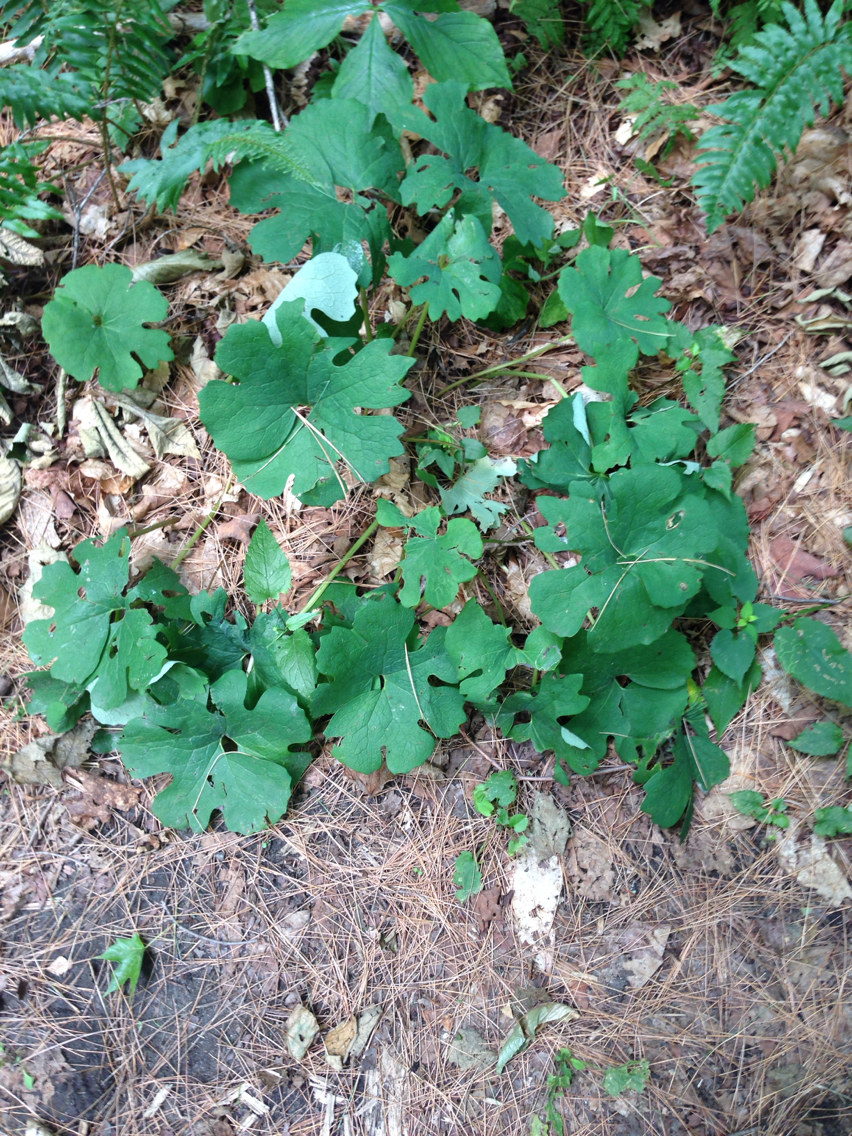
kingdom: Plantae
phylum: Tracheophyta
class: Magnoliopsida
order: Ranunculales
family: Papaveraceae
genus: Sanguinaria
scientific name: Sanguinaria canadensis
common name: Bloodroot
